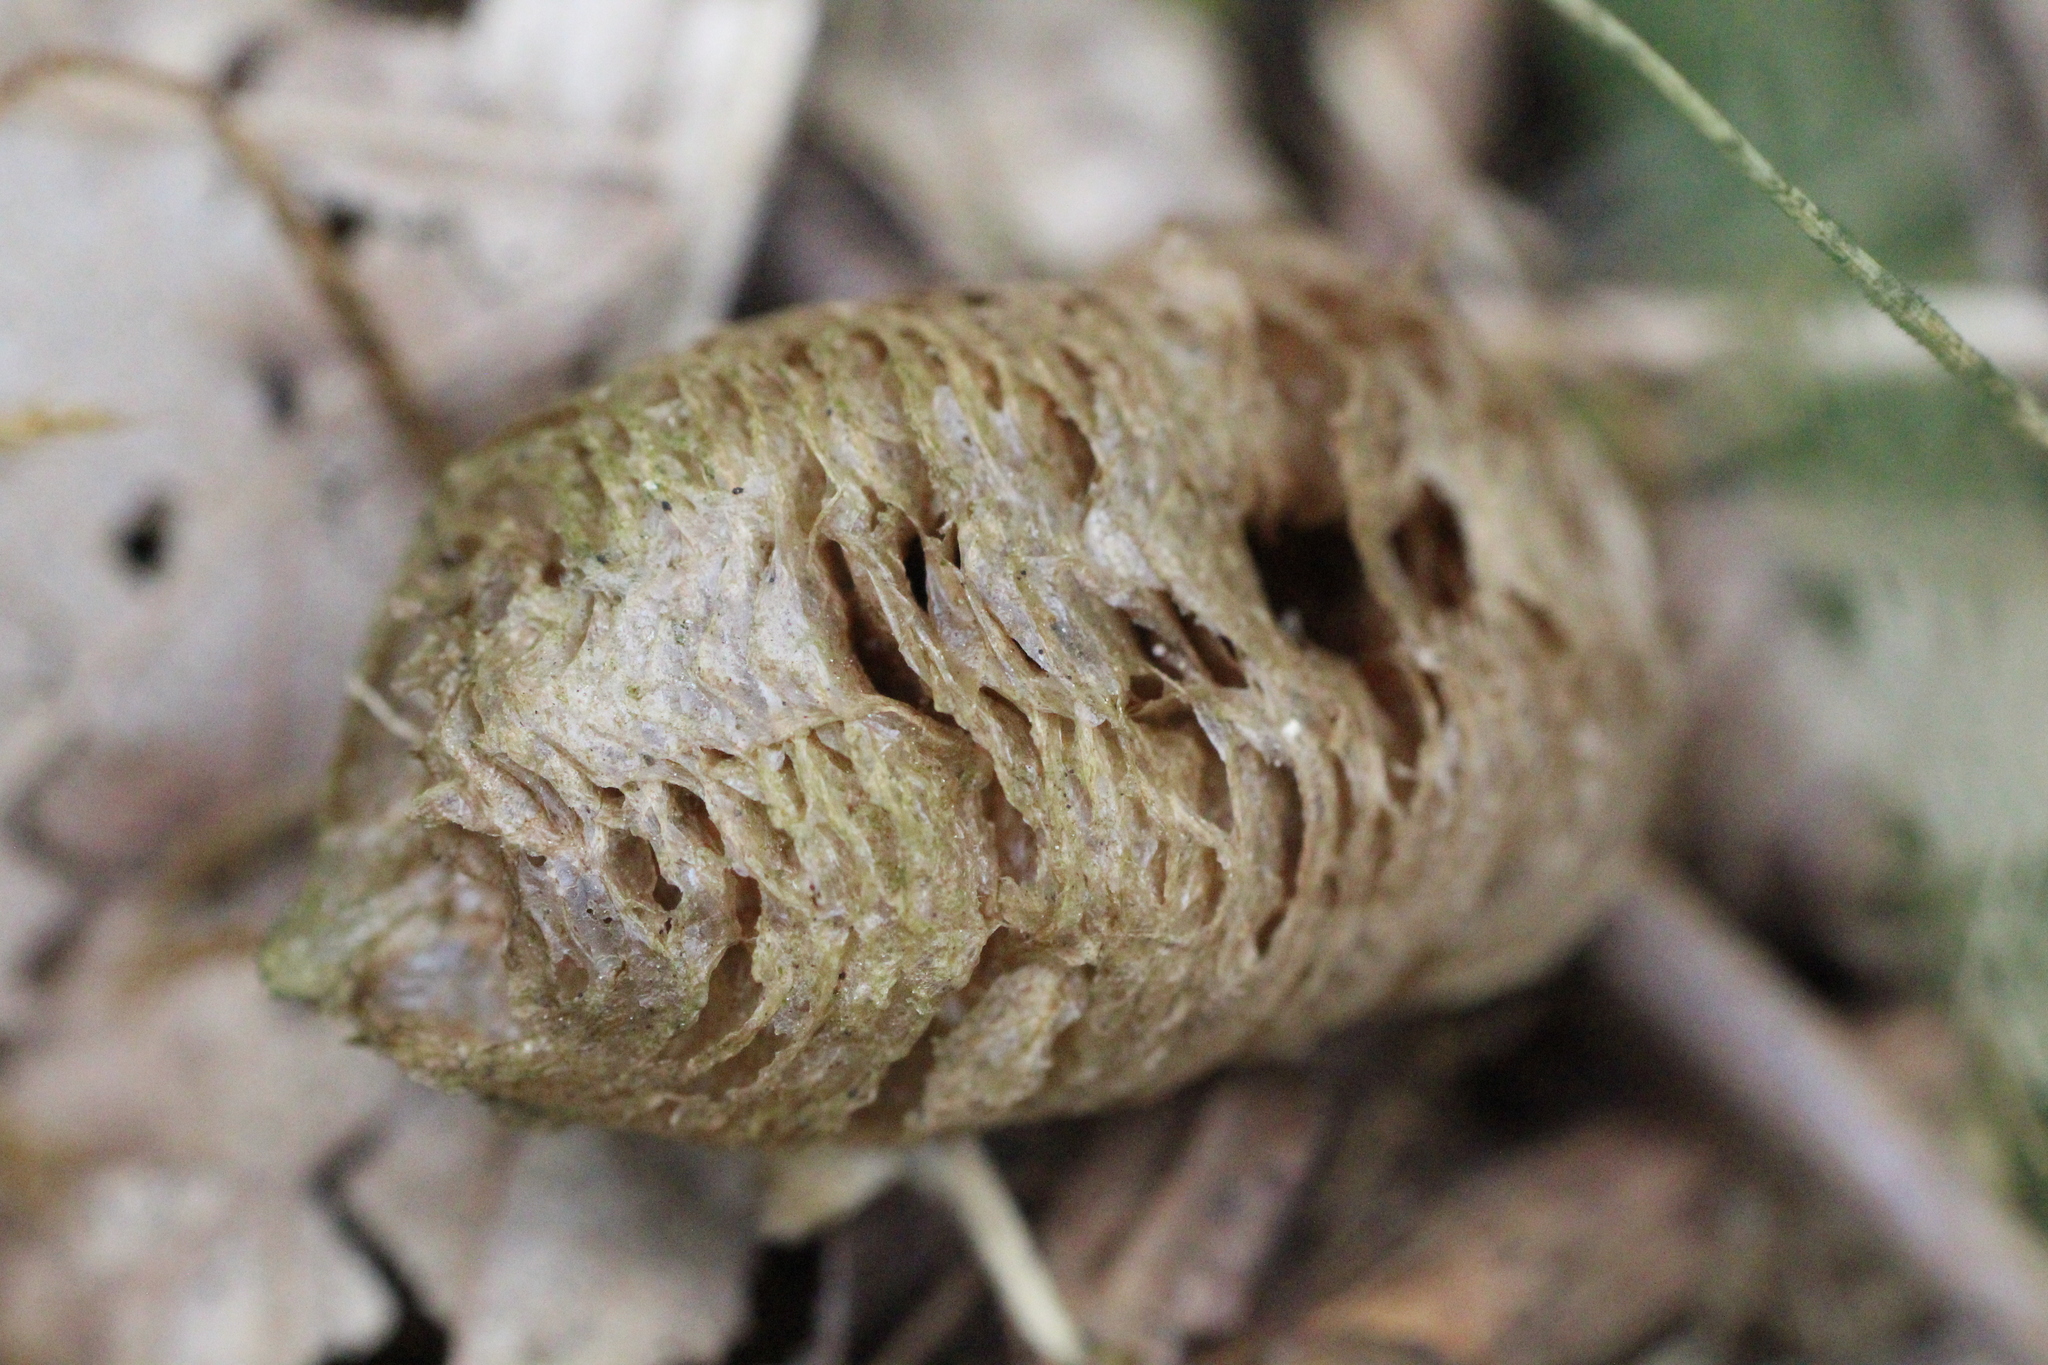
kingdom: Animalia
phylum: Arthropoda
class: Insecta
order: Mantodea
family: Mantidae
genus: Mantis
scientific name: Mantis religiosa
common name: Praying mantis
